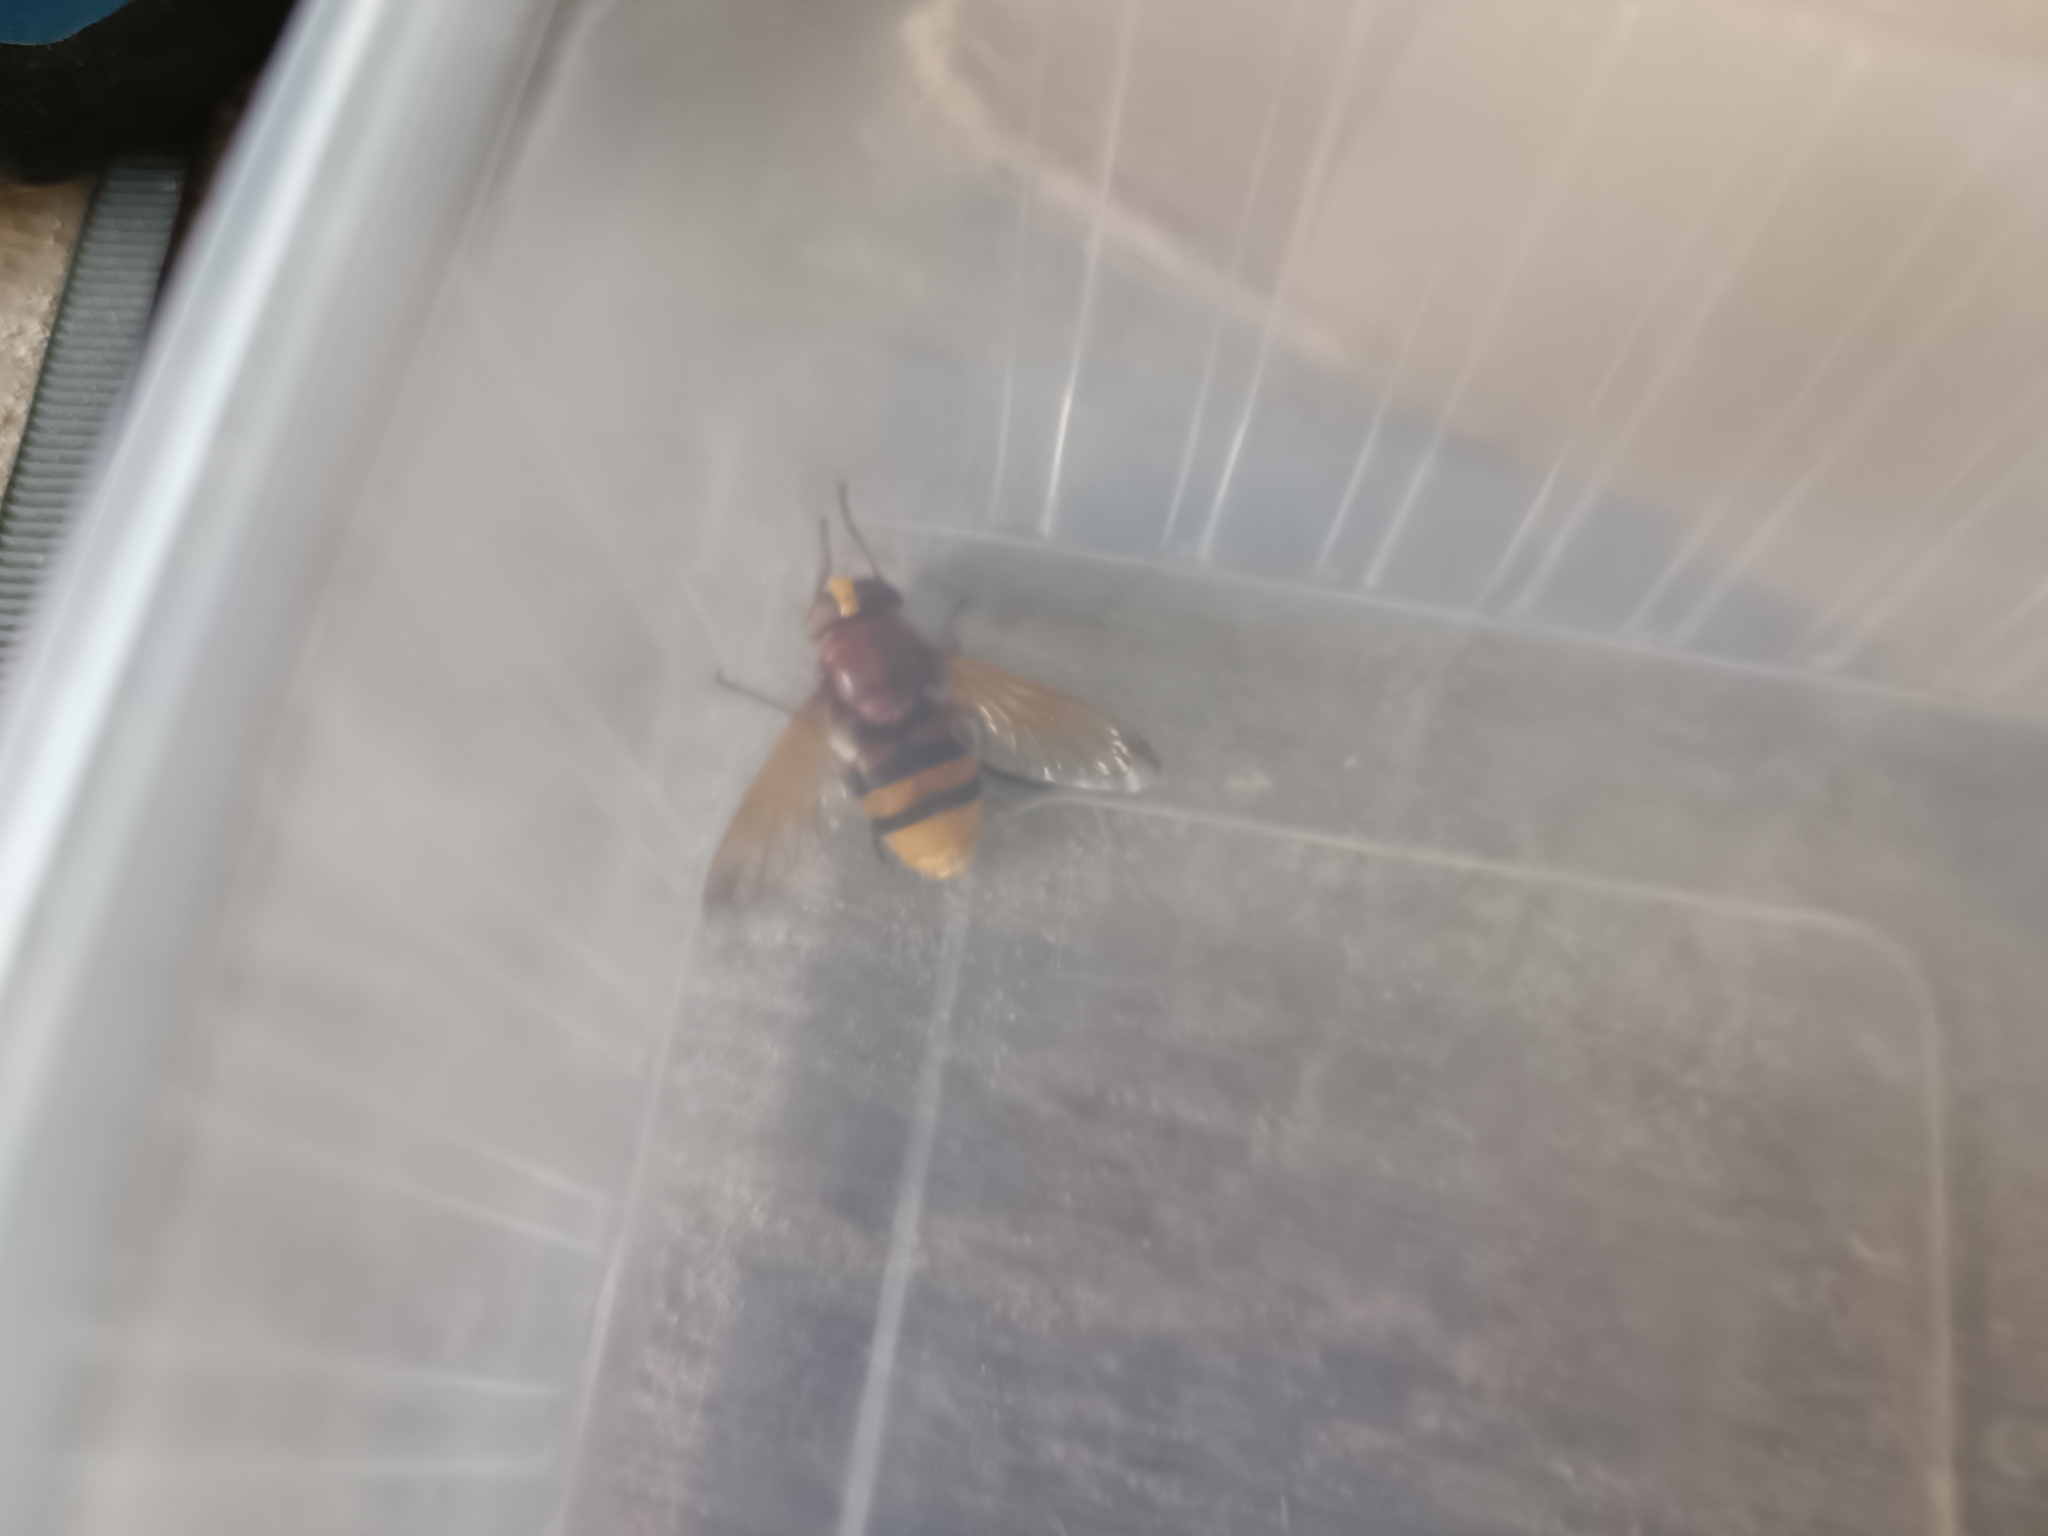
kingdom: Animalia
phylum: Arthropoda
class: Insecta
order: Diptera
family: Syrphidae
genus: Volucella
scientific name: Volucella zonaria
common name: Hornet hoverfly
